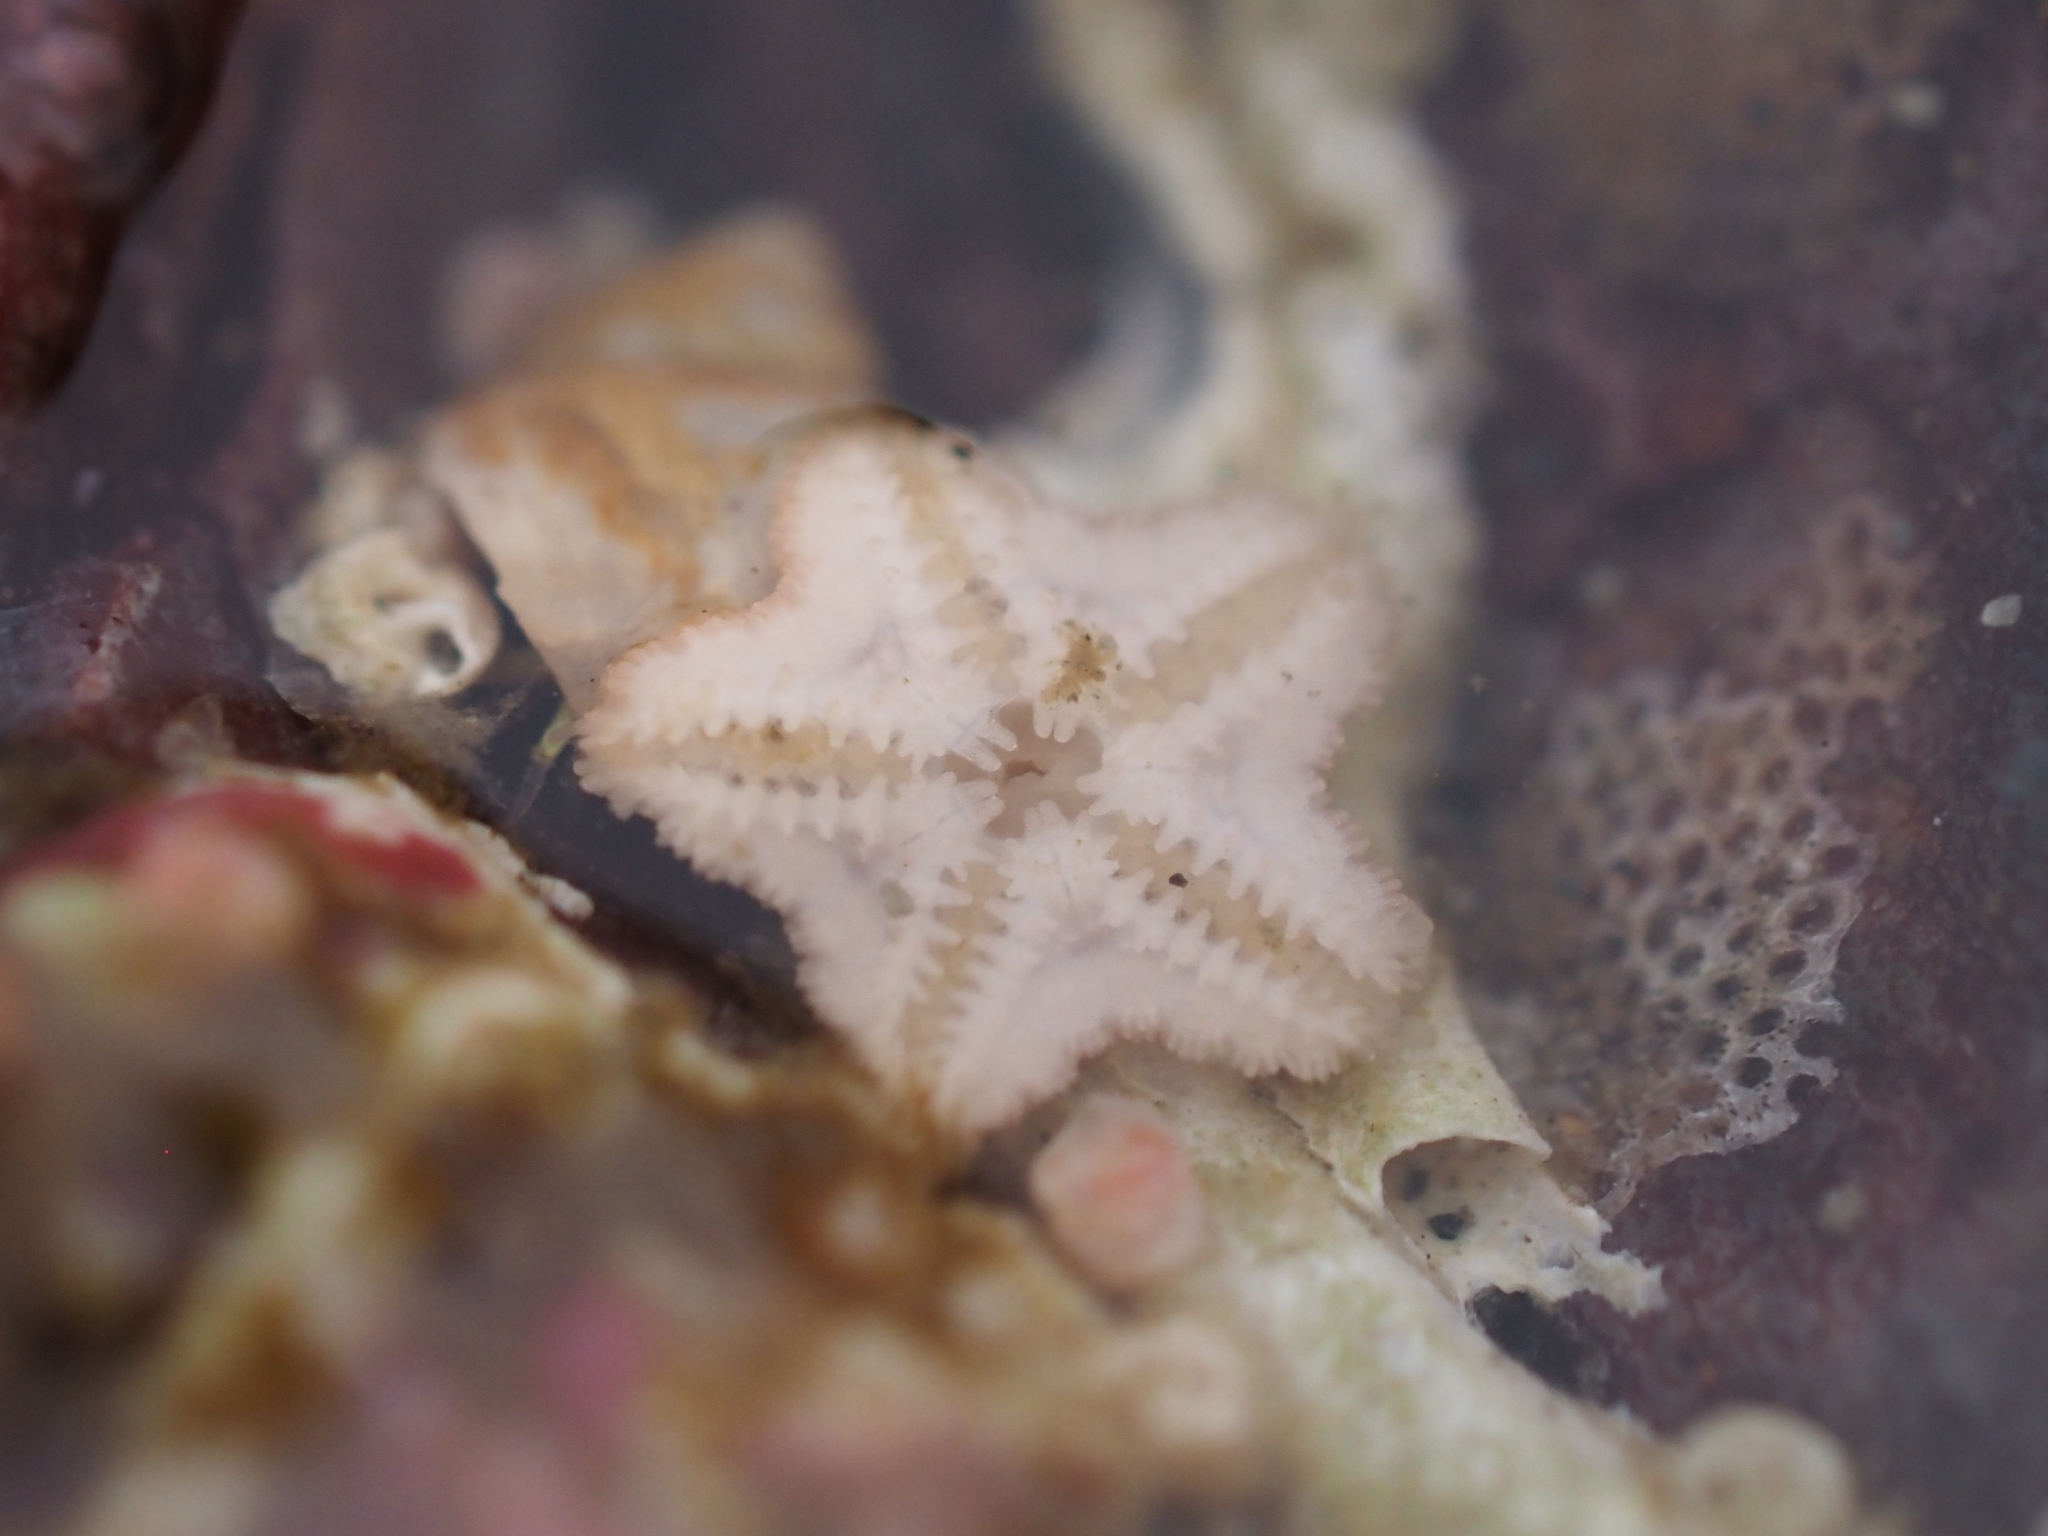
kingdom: Animalia
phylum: Echinodermata
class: Asteroidea
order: Valvatida
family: Asteropseidae
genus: Dermasterias
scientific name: Dermasterias imbricata
